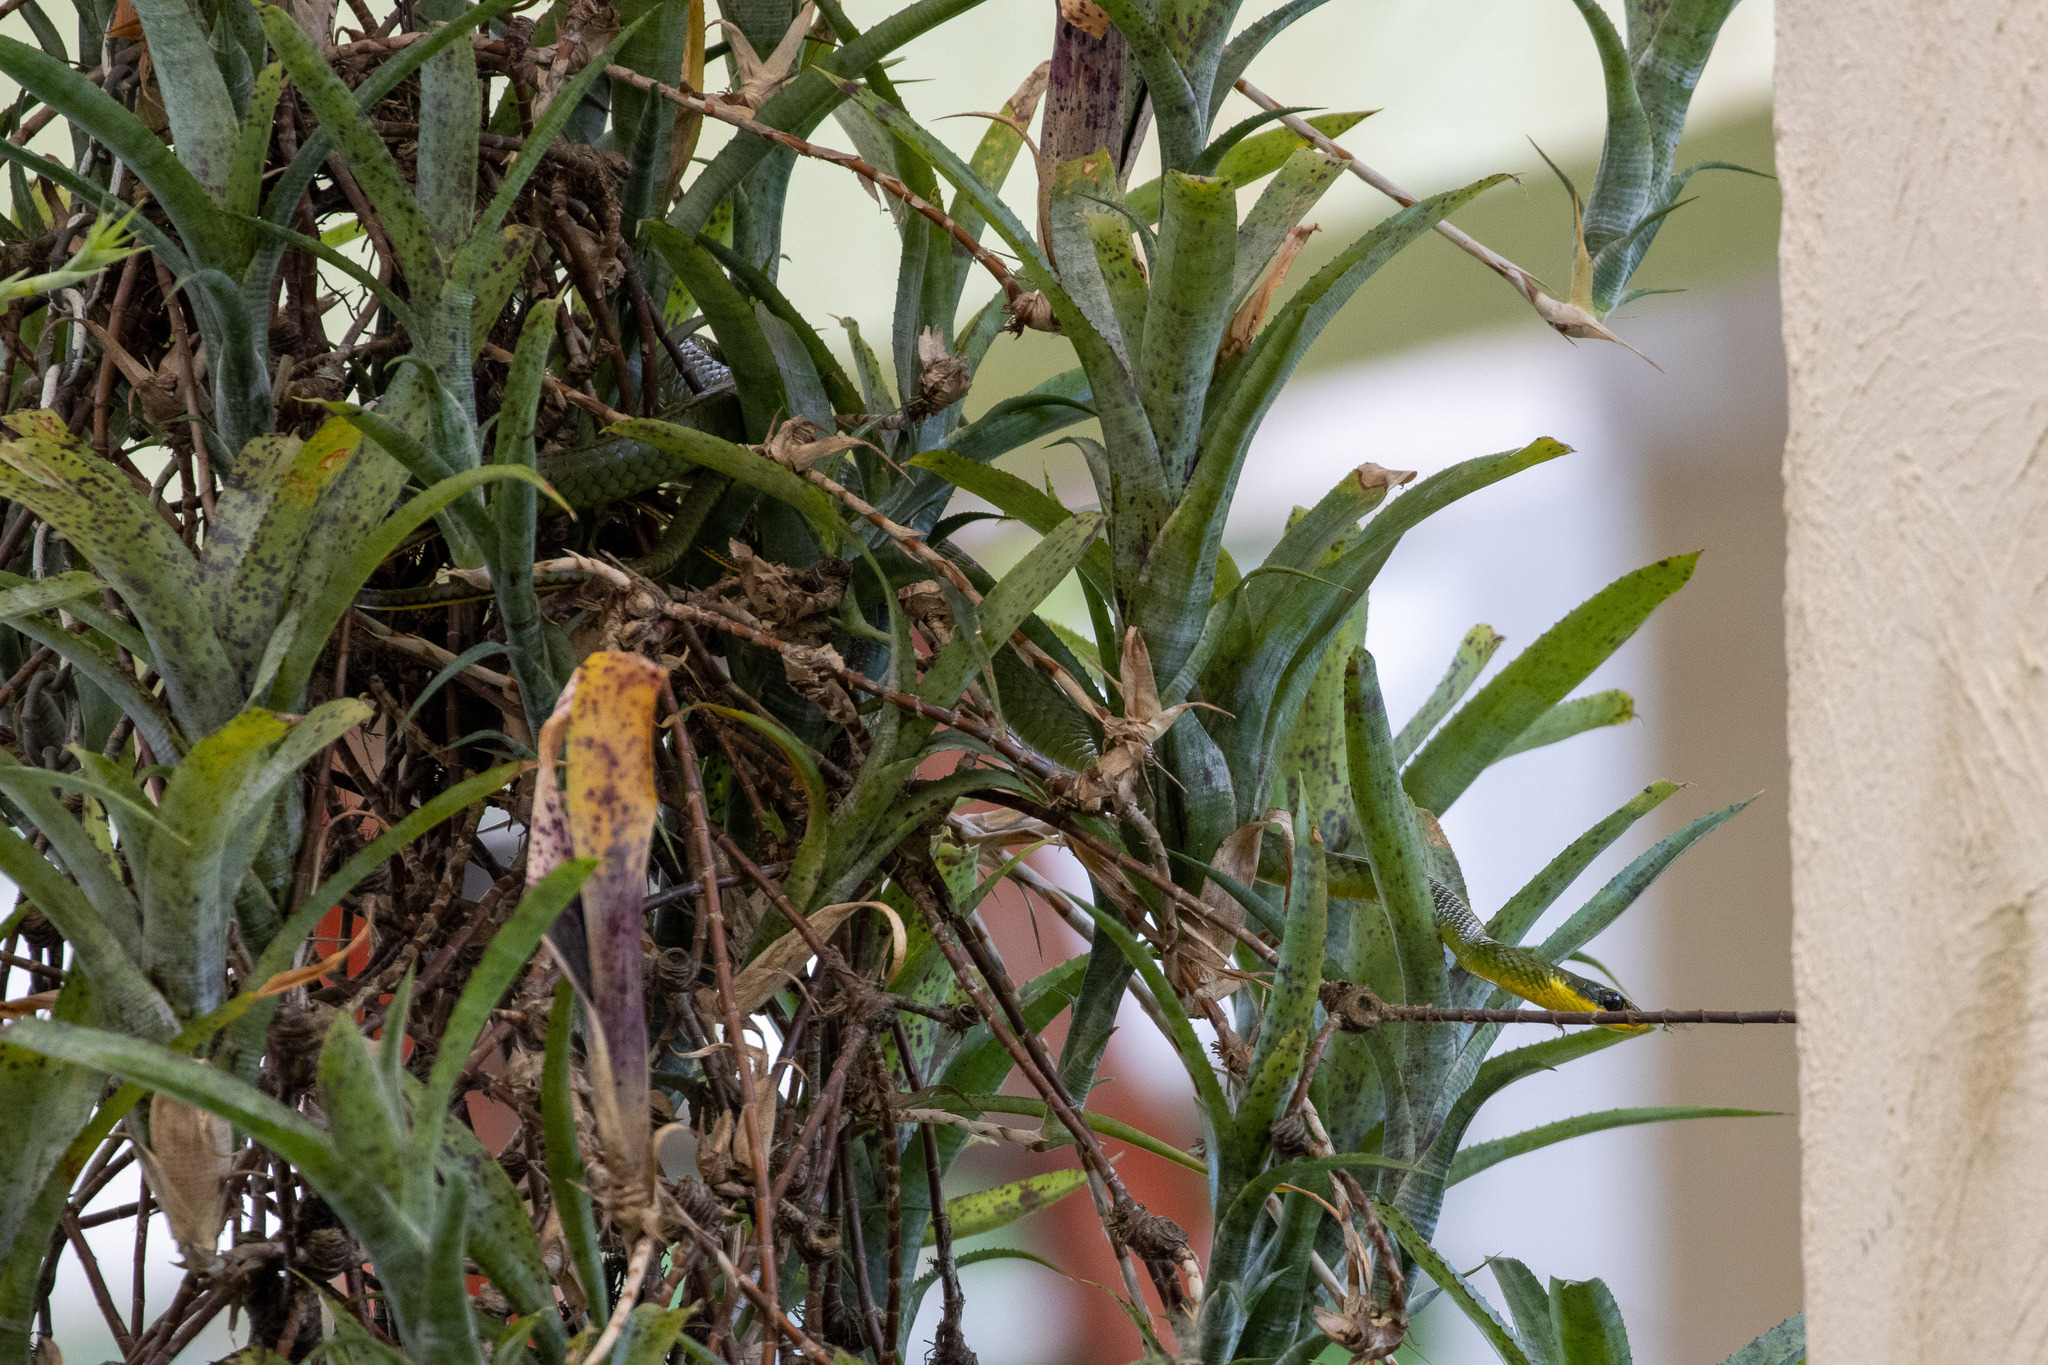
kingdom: Animalia
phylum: Chordata
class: Squamata
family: Colubridae
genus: Chironius
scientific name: Chironius bicarinatus
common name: Two-headed sipo
